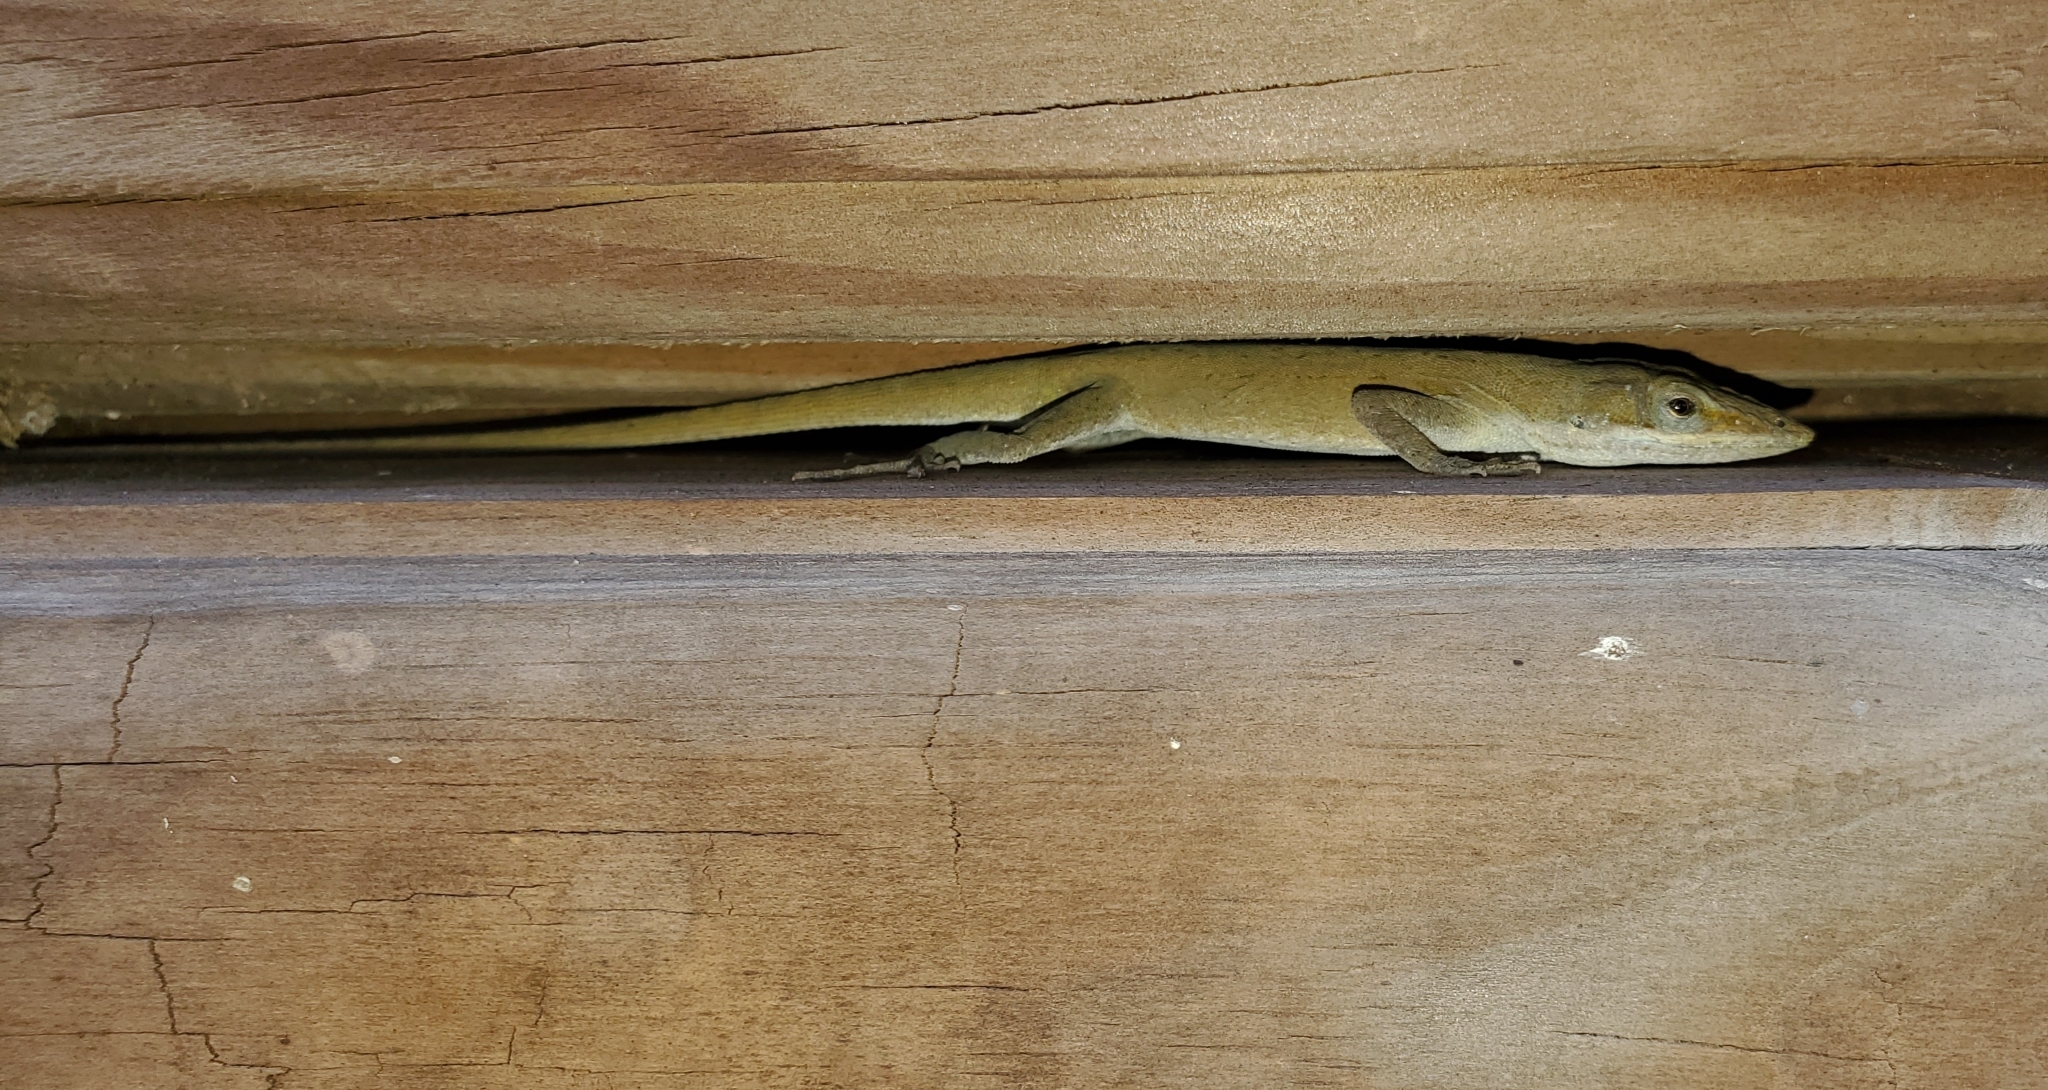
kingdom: Animalia
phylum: Chordata
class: Squamata
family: Dactyloidae
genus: Anolis
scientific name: Anolis carolinensis
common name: Green anole
